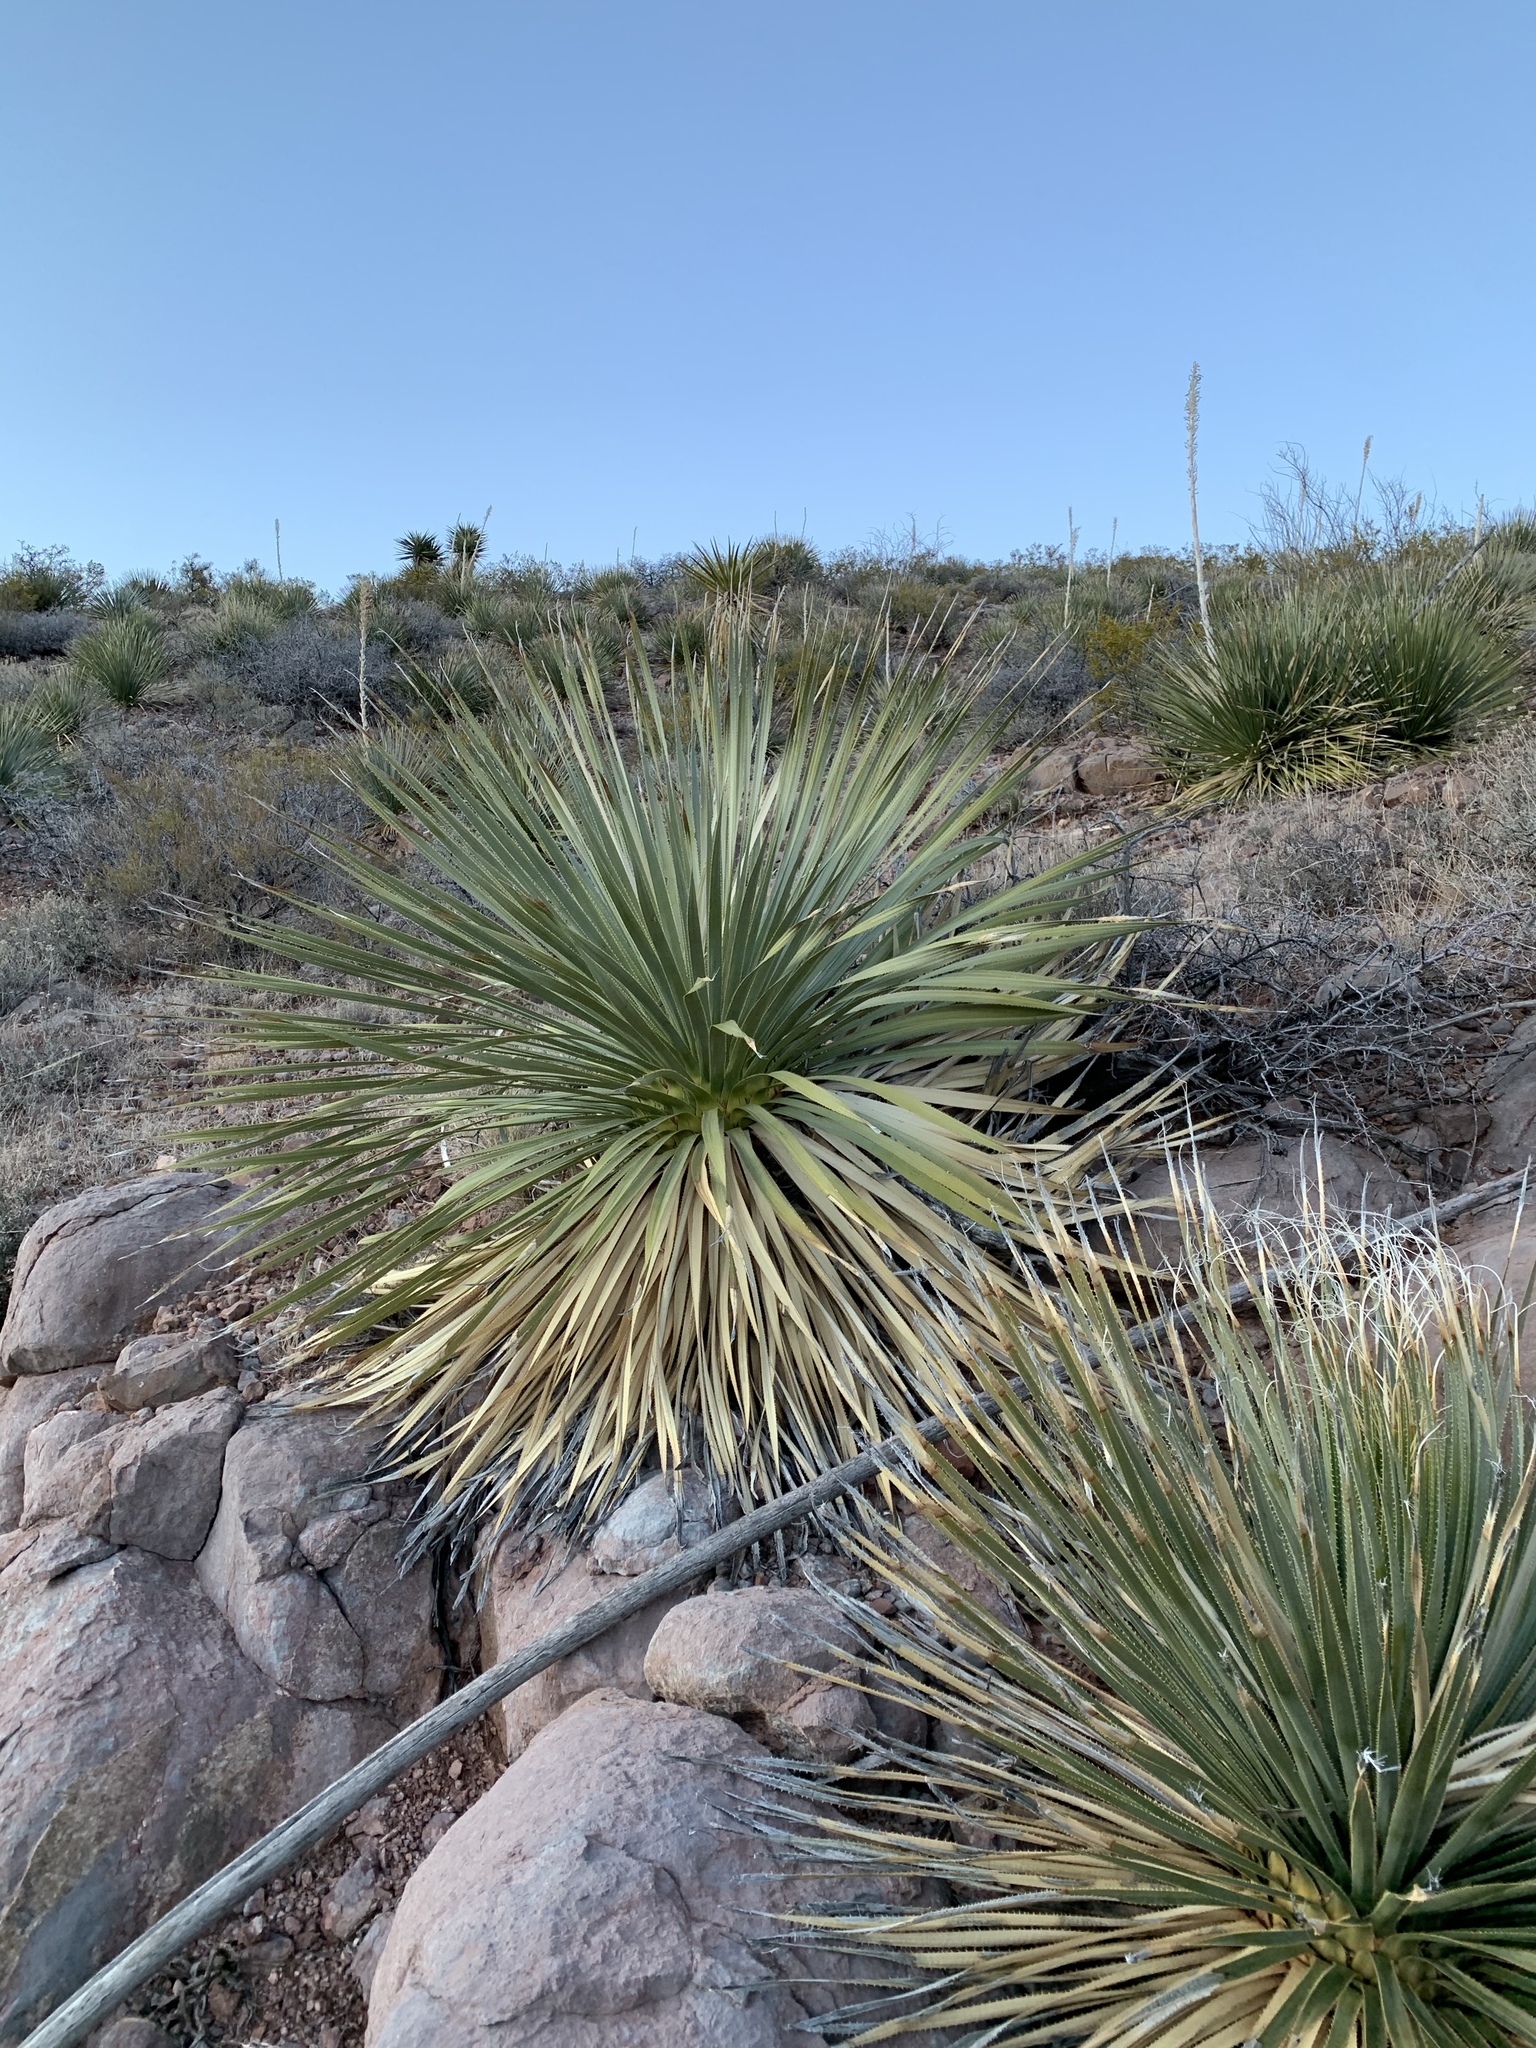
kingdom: Plantae
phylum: Tracheophyta
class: Liliopsida
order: Asparagales
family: Asparagaceae
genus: Dasylirion
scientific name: Dasylirion wheeleri
